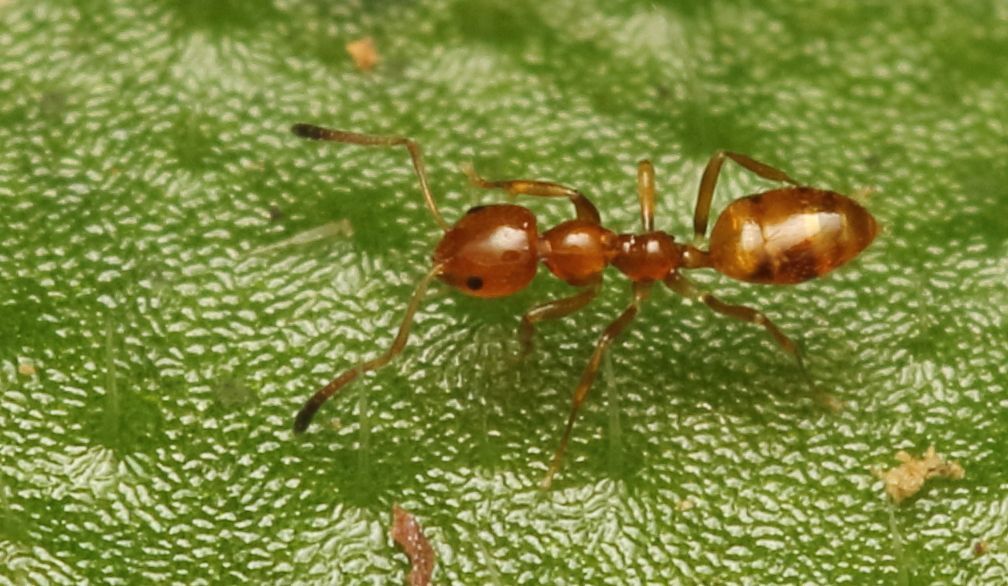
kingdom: Animalia
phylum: Arthropoda
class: Insecta
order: Hymenoptera
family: Formicidae
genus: Plagiolepis
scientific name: Plagiolepis decora
